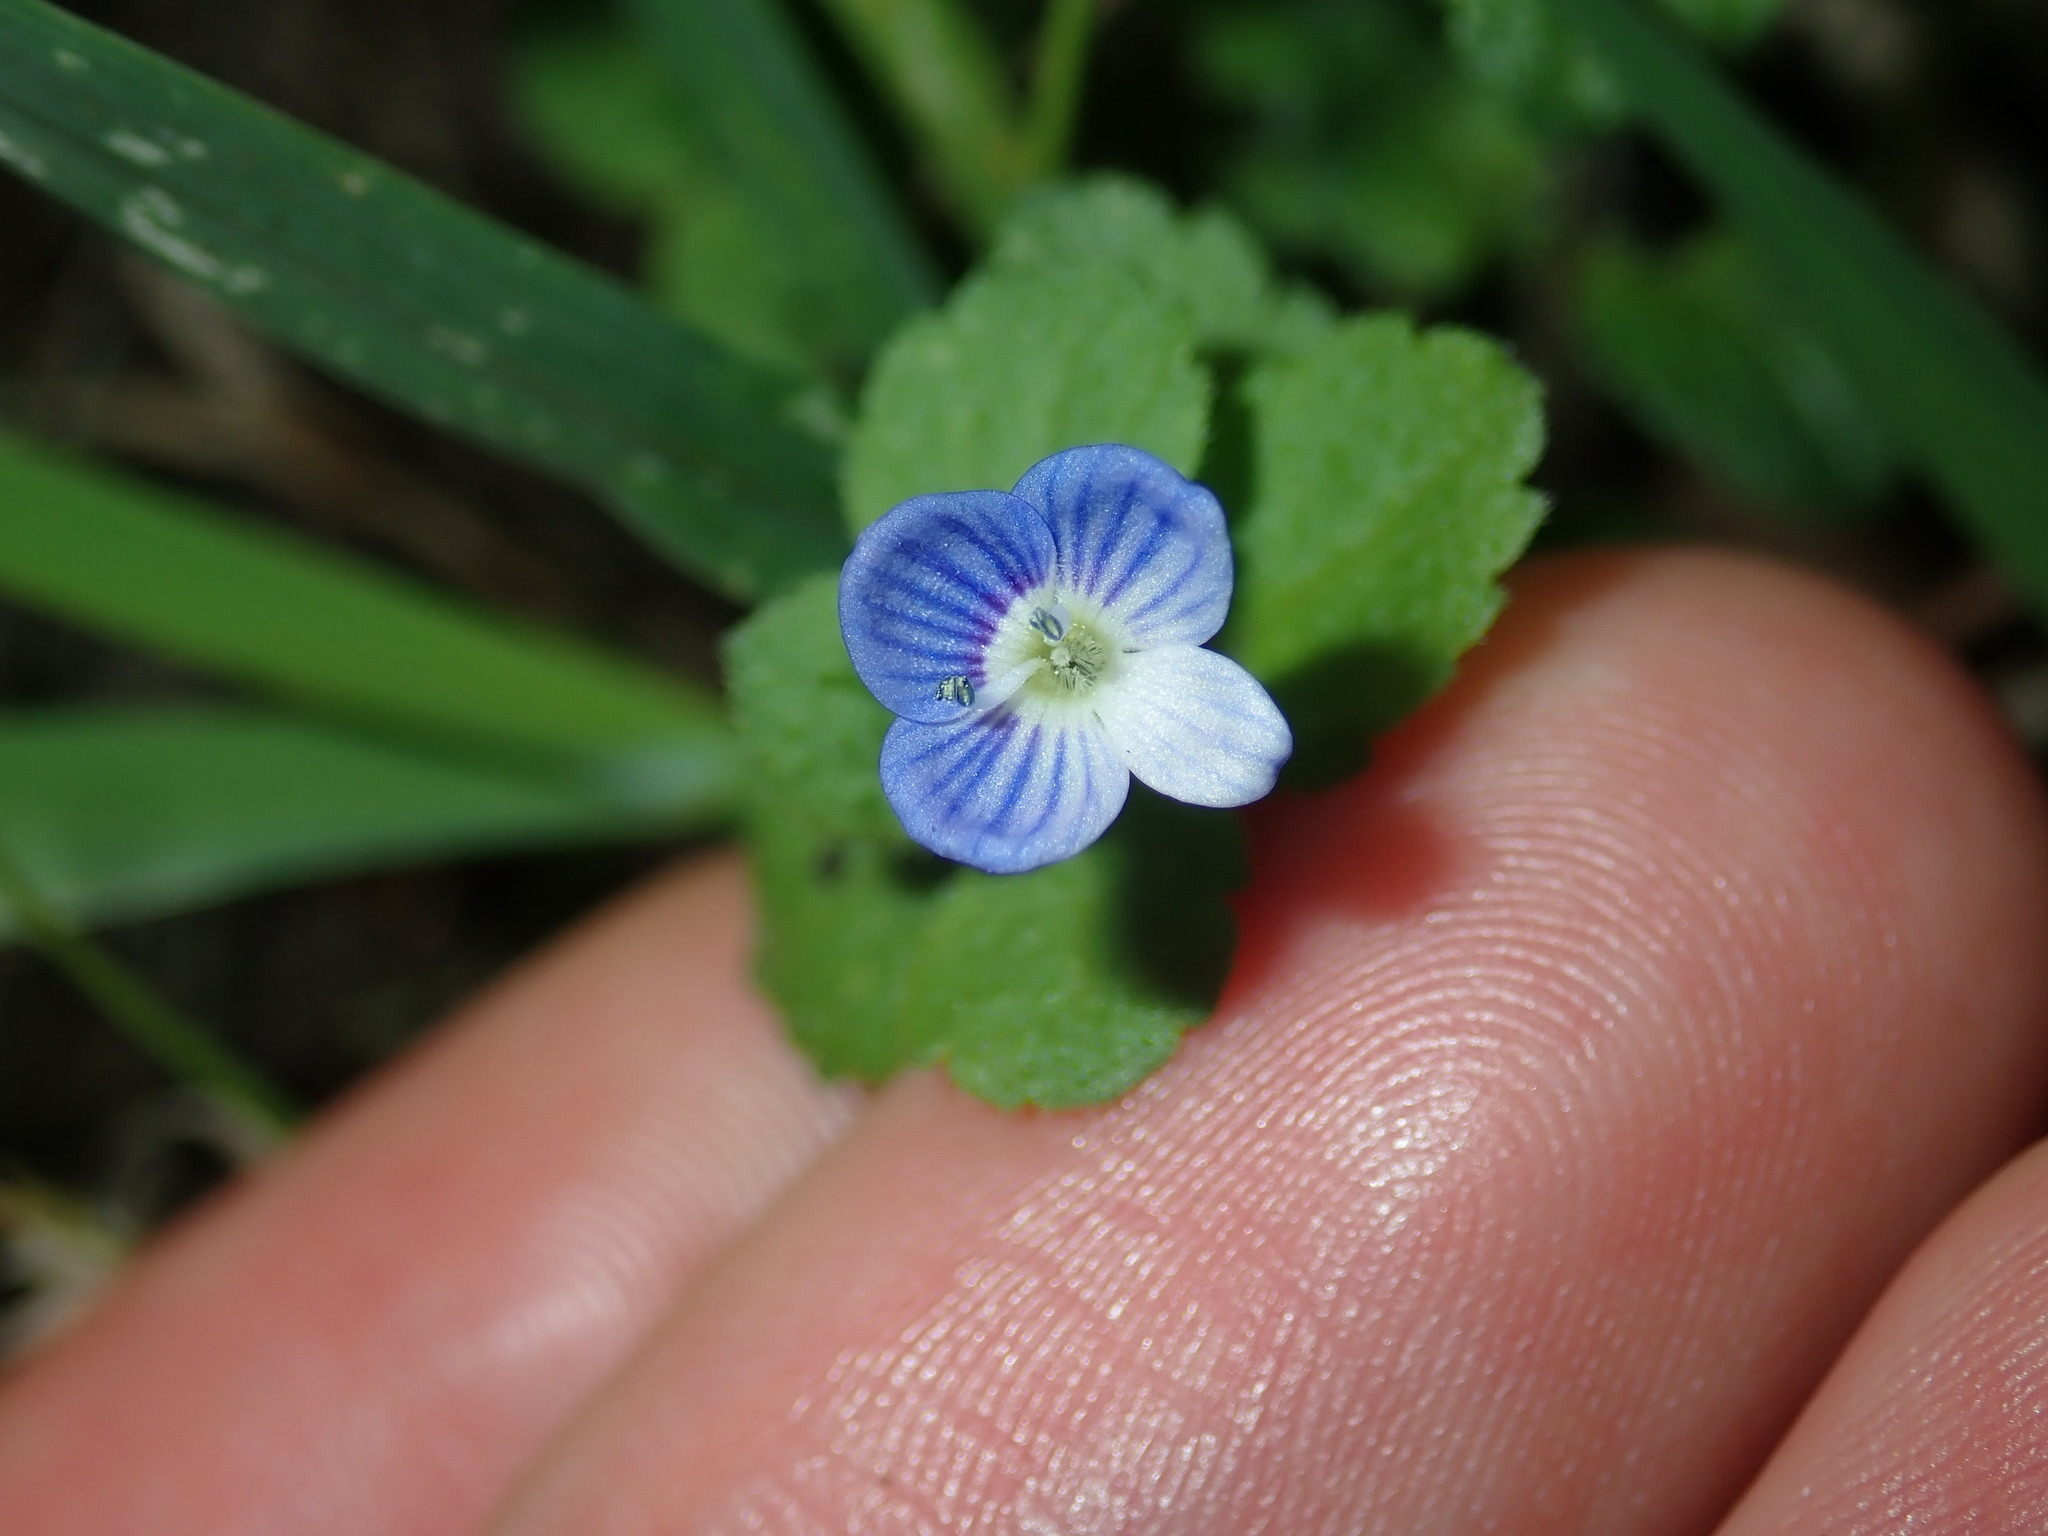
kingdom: Plantae
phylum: Tracheophyta
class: Magnoliopsida
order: Lamiales
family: Plantaginaceae
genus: Veronica
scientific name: Veronica persica
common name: Common field-speedwell
